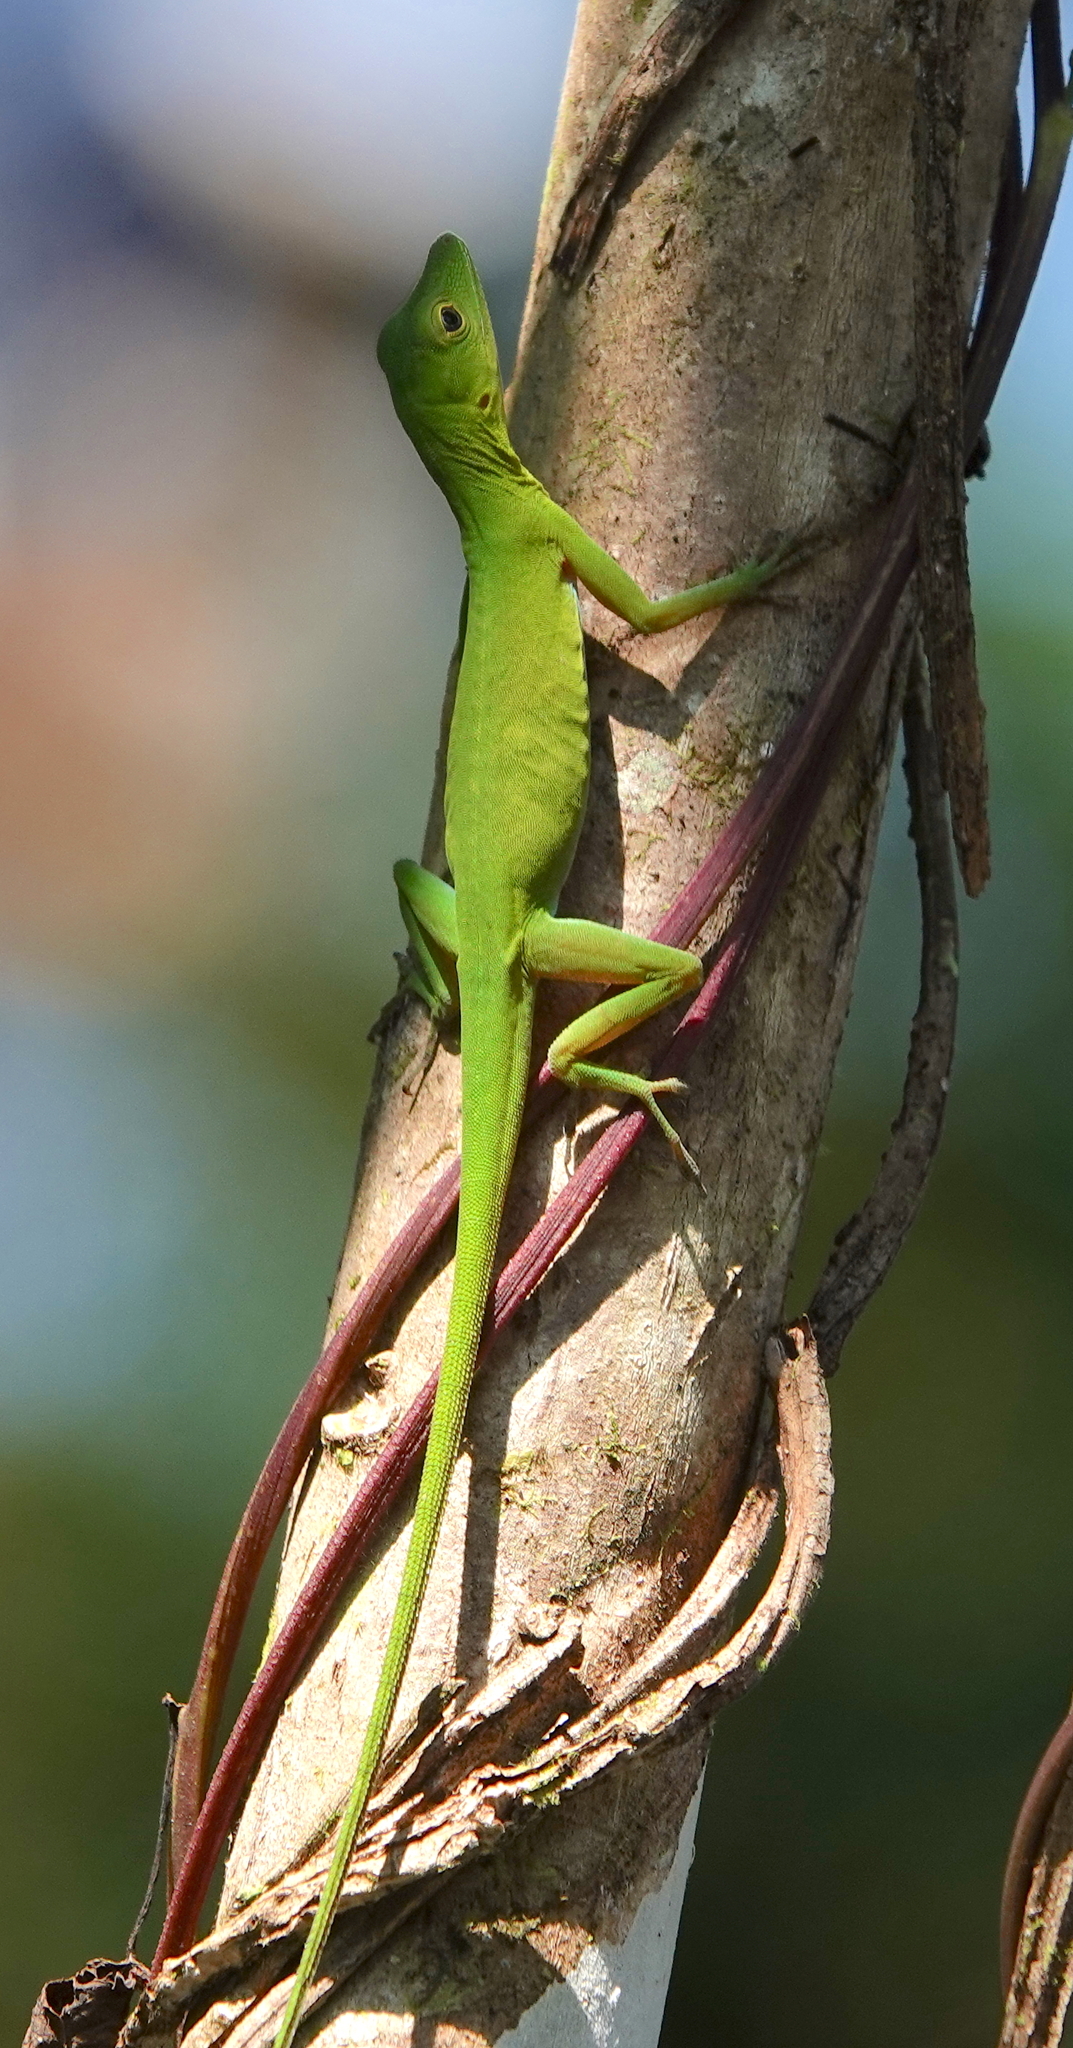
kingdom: Animalia
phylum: Chordata
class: Squamata
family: Dactyloidae
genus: Anolis
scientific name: Anolis chloris
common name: Boulenger's green anole
